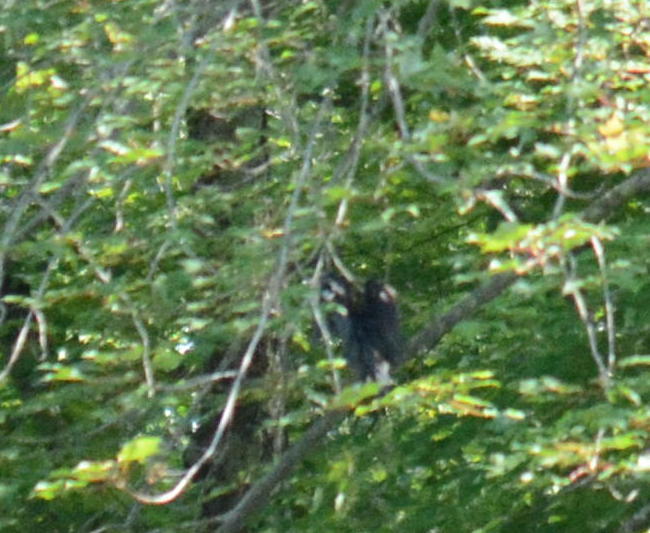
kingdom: Animalia
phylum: Chordata
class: Aves
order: Pelecaniformes
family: Ardeidae
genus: Butorides
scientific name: Butorides virescens
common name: Green heron
